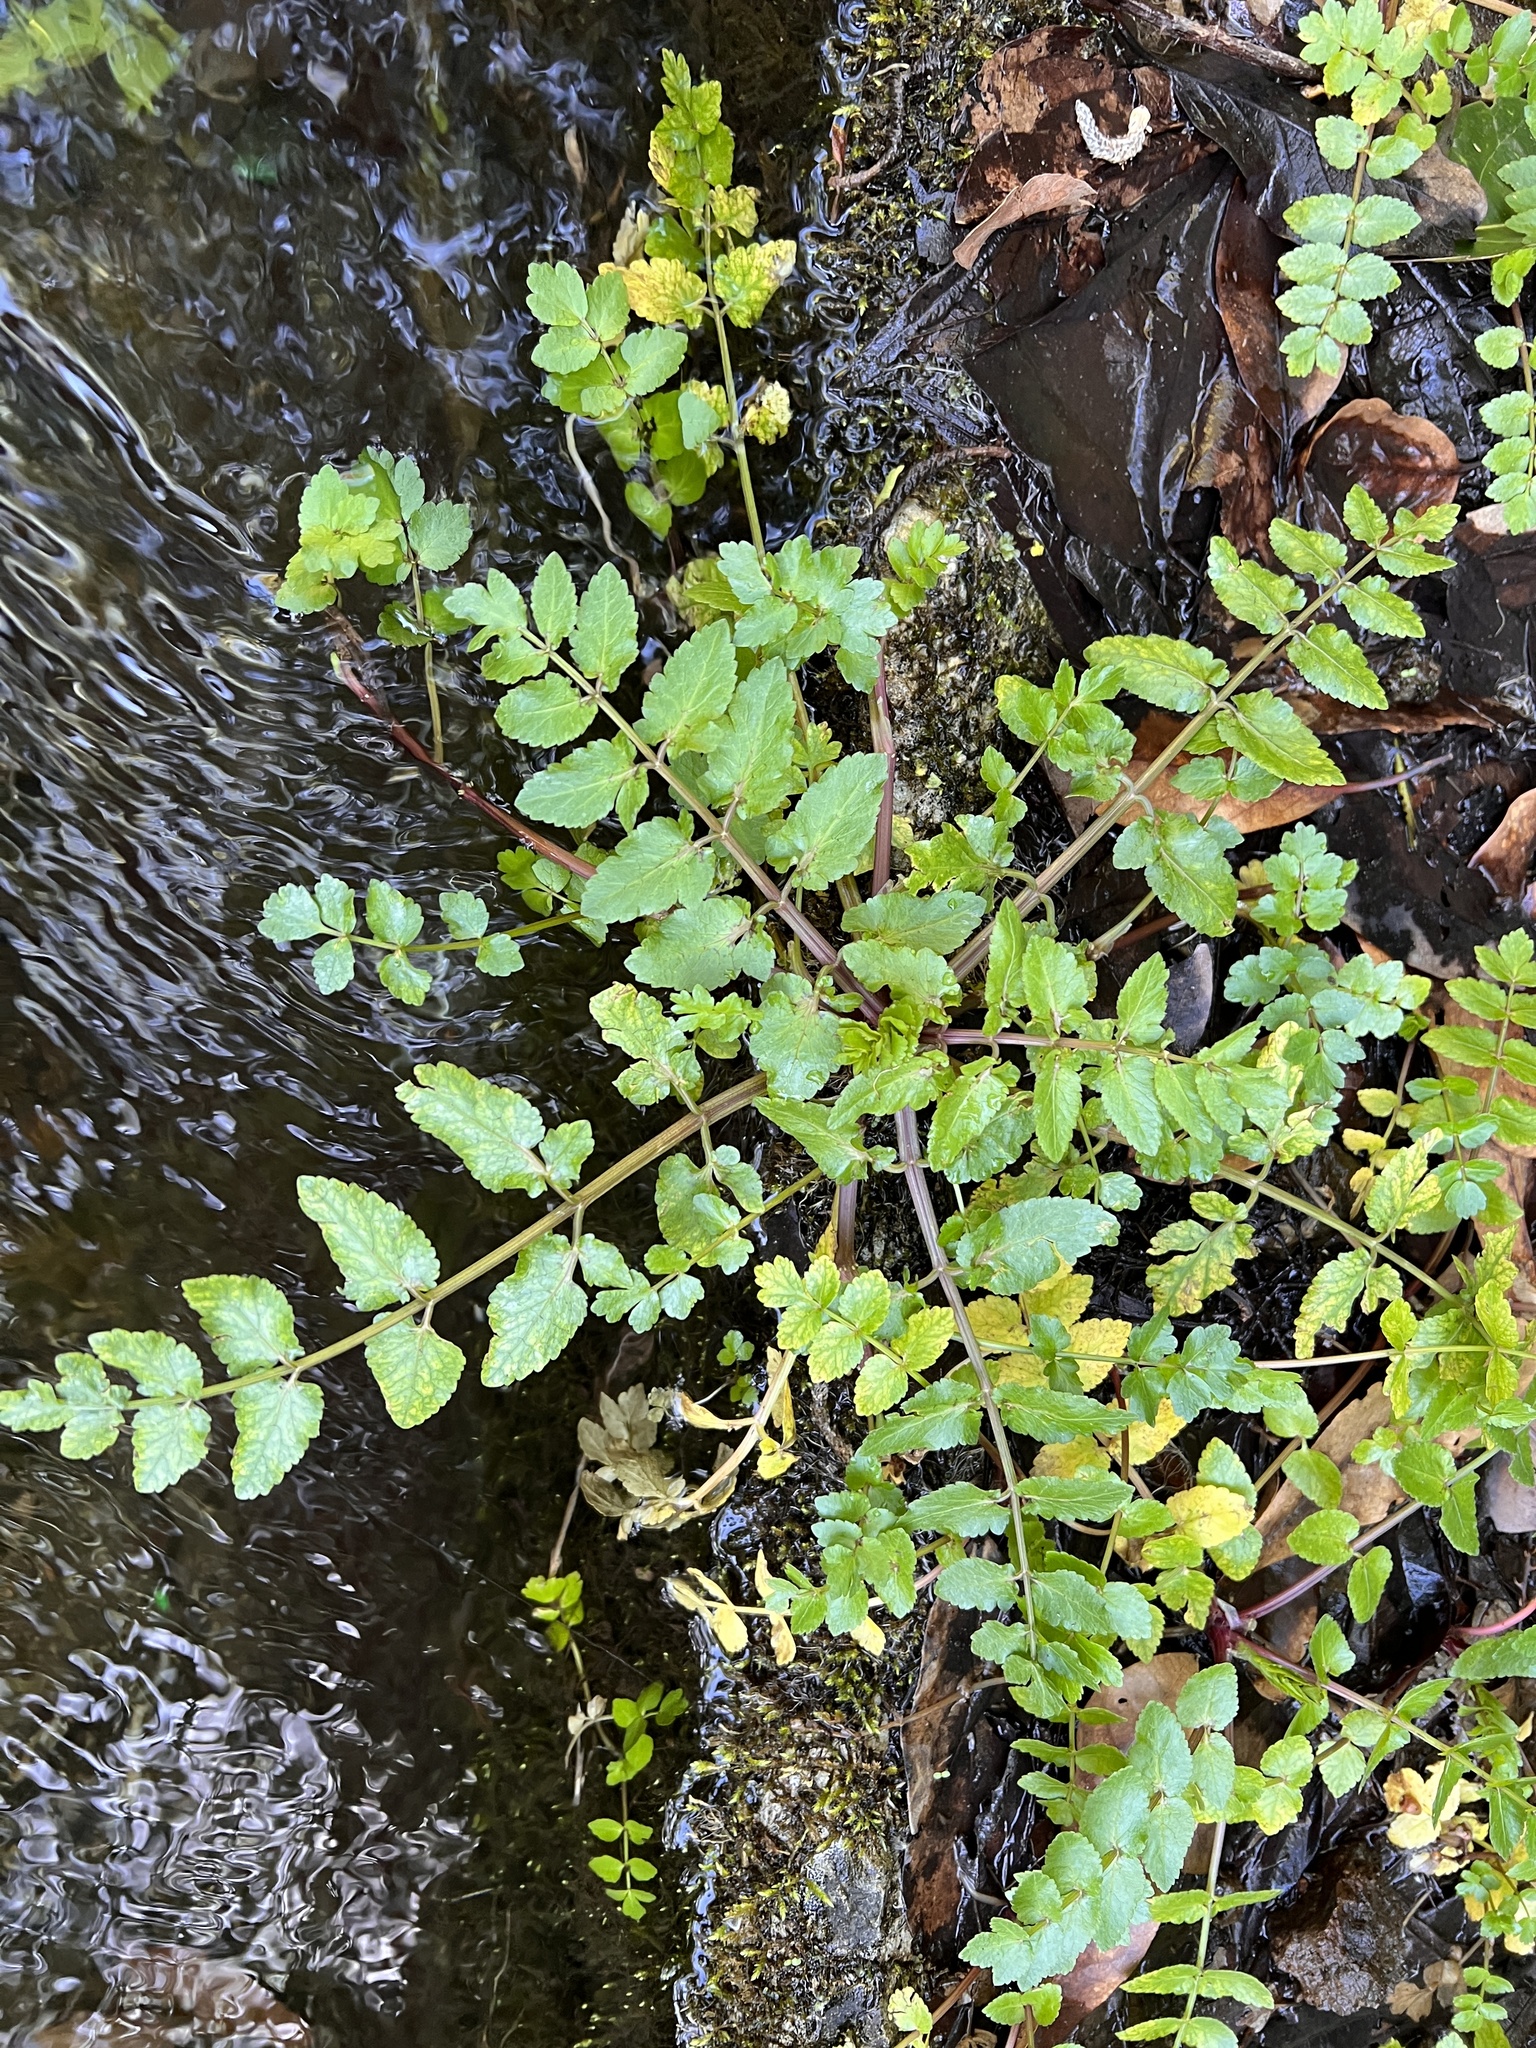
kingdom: Plantae
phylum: Tracheophyta
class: Magnoliopsida
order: Apiales
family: Apiaceae
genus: Helosciadium
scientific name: Helosciadium nodiflorum
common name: Fool's-watercress
